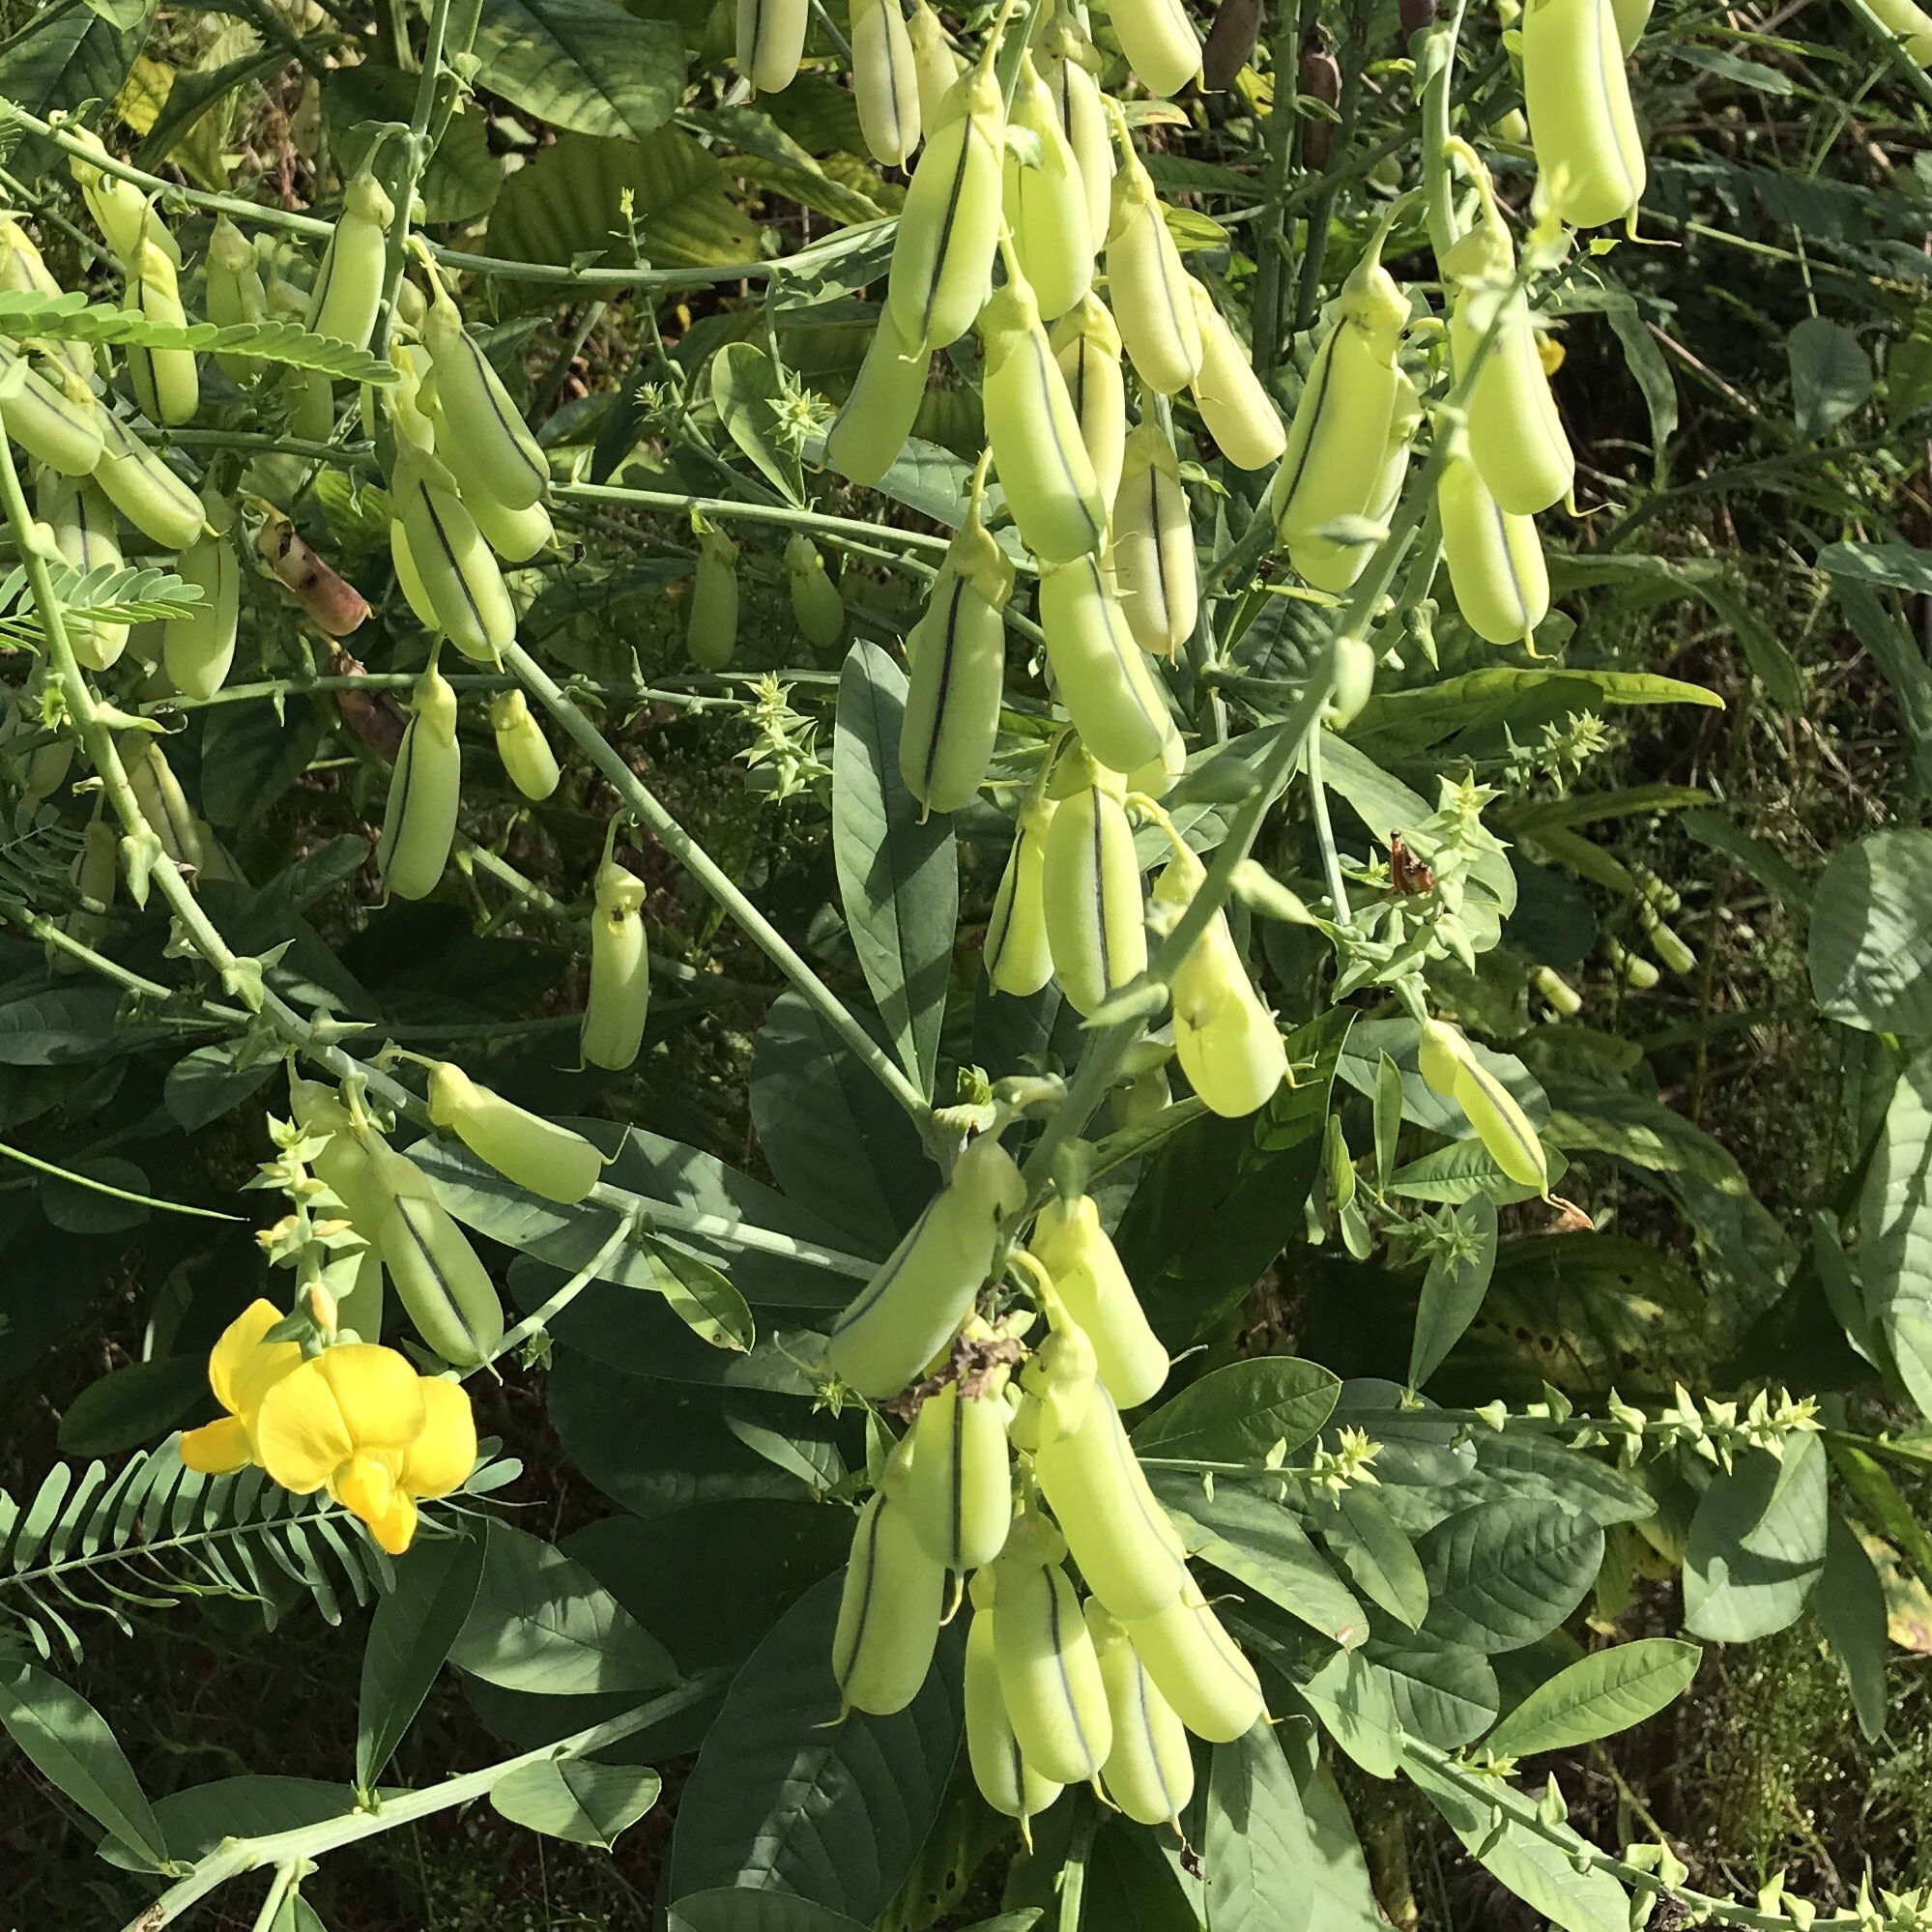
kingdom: Plantae
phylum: Tracheophyta
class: Magnoliopsida
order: Fabales
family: Fabaceae
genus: Crotalaria
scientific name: Crotalaria spectabilis
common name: Showy rattlebox
